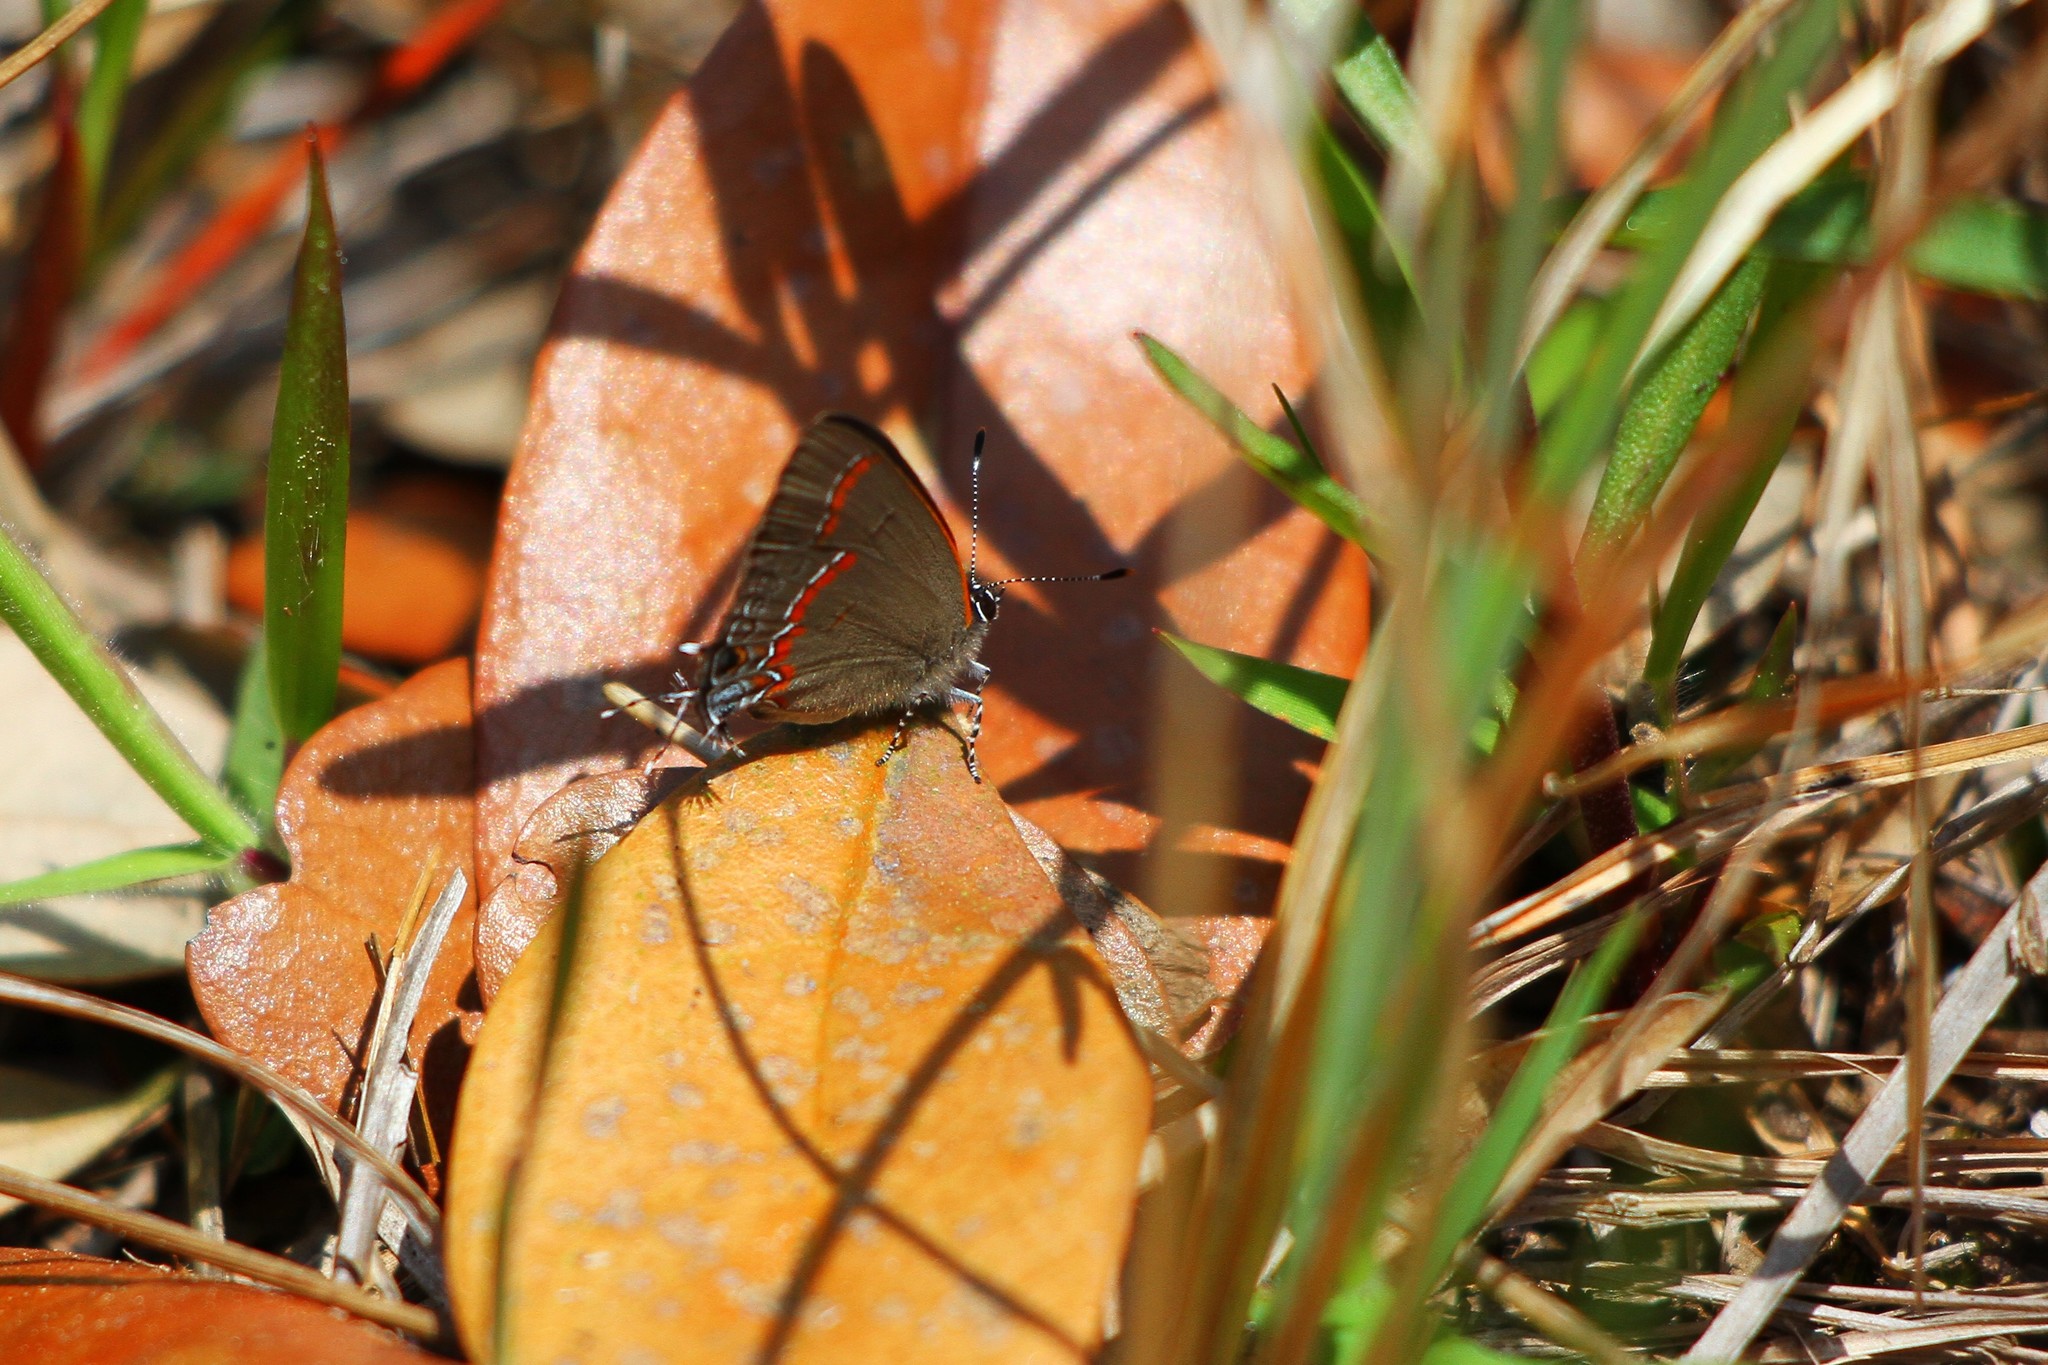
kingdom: Animalia
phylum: Arthropoda
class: Insecta
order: Lepidoptera
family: Lycaenidae
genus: Calycopis
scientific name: Calycopis cecrops
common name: Red-banded hairstreak
